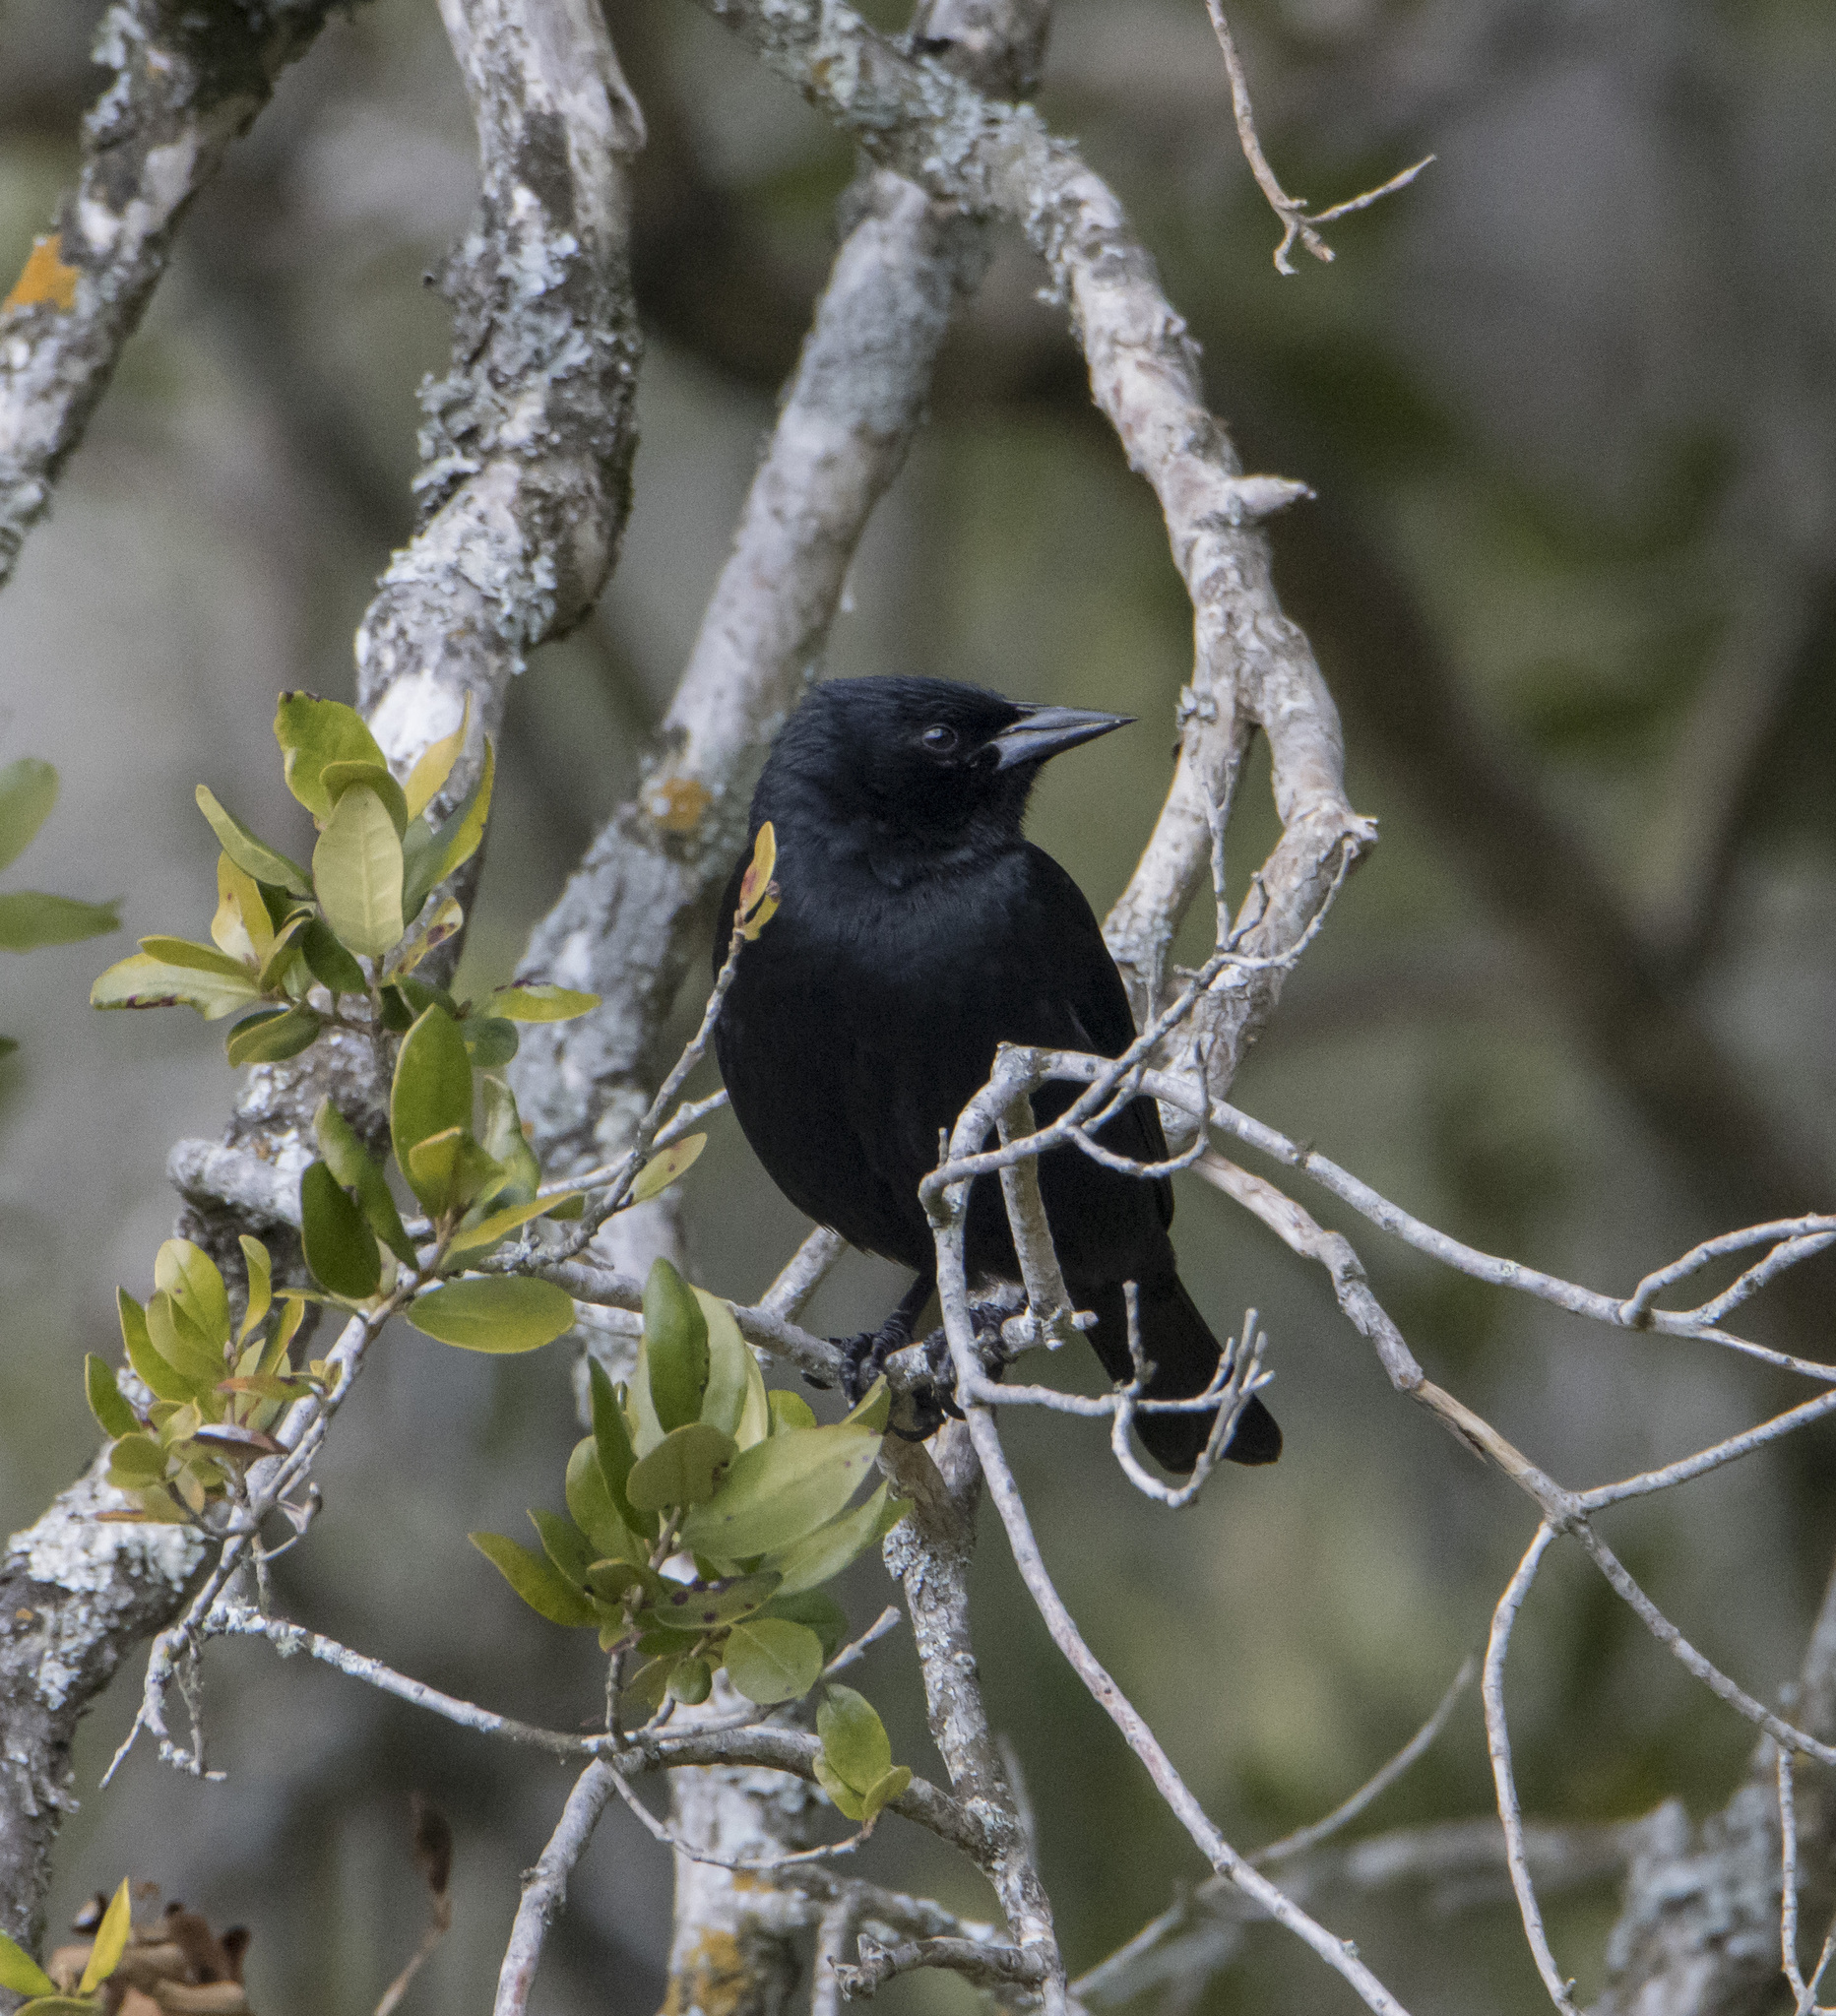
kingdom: Animalia
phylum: Chordata
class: Aves
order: Passeriformes
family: Icteridae
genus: Curaeus
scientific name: Curaeus curaeus
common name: Austral blackbird
